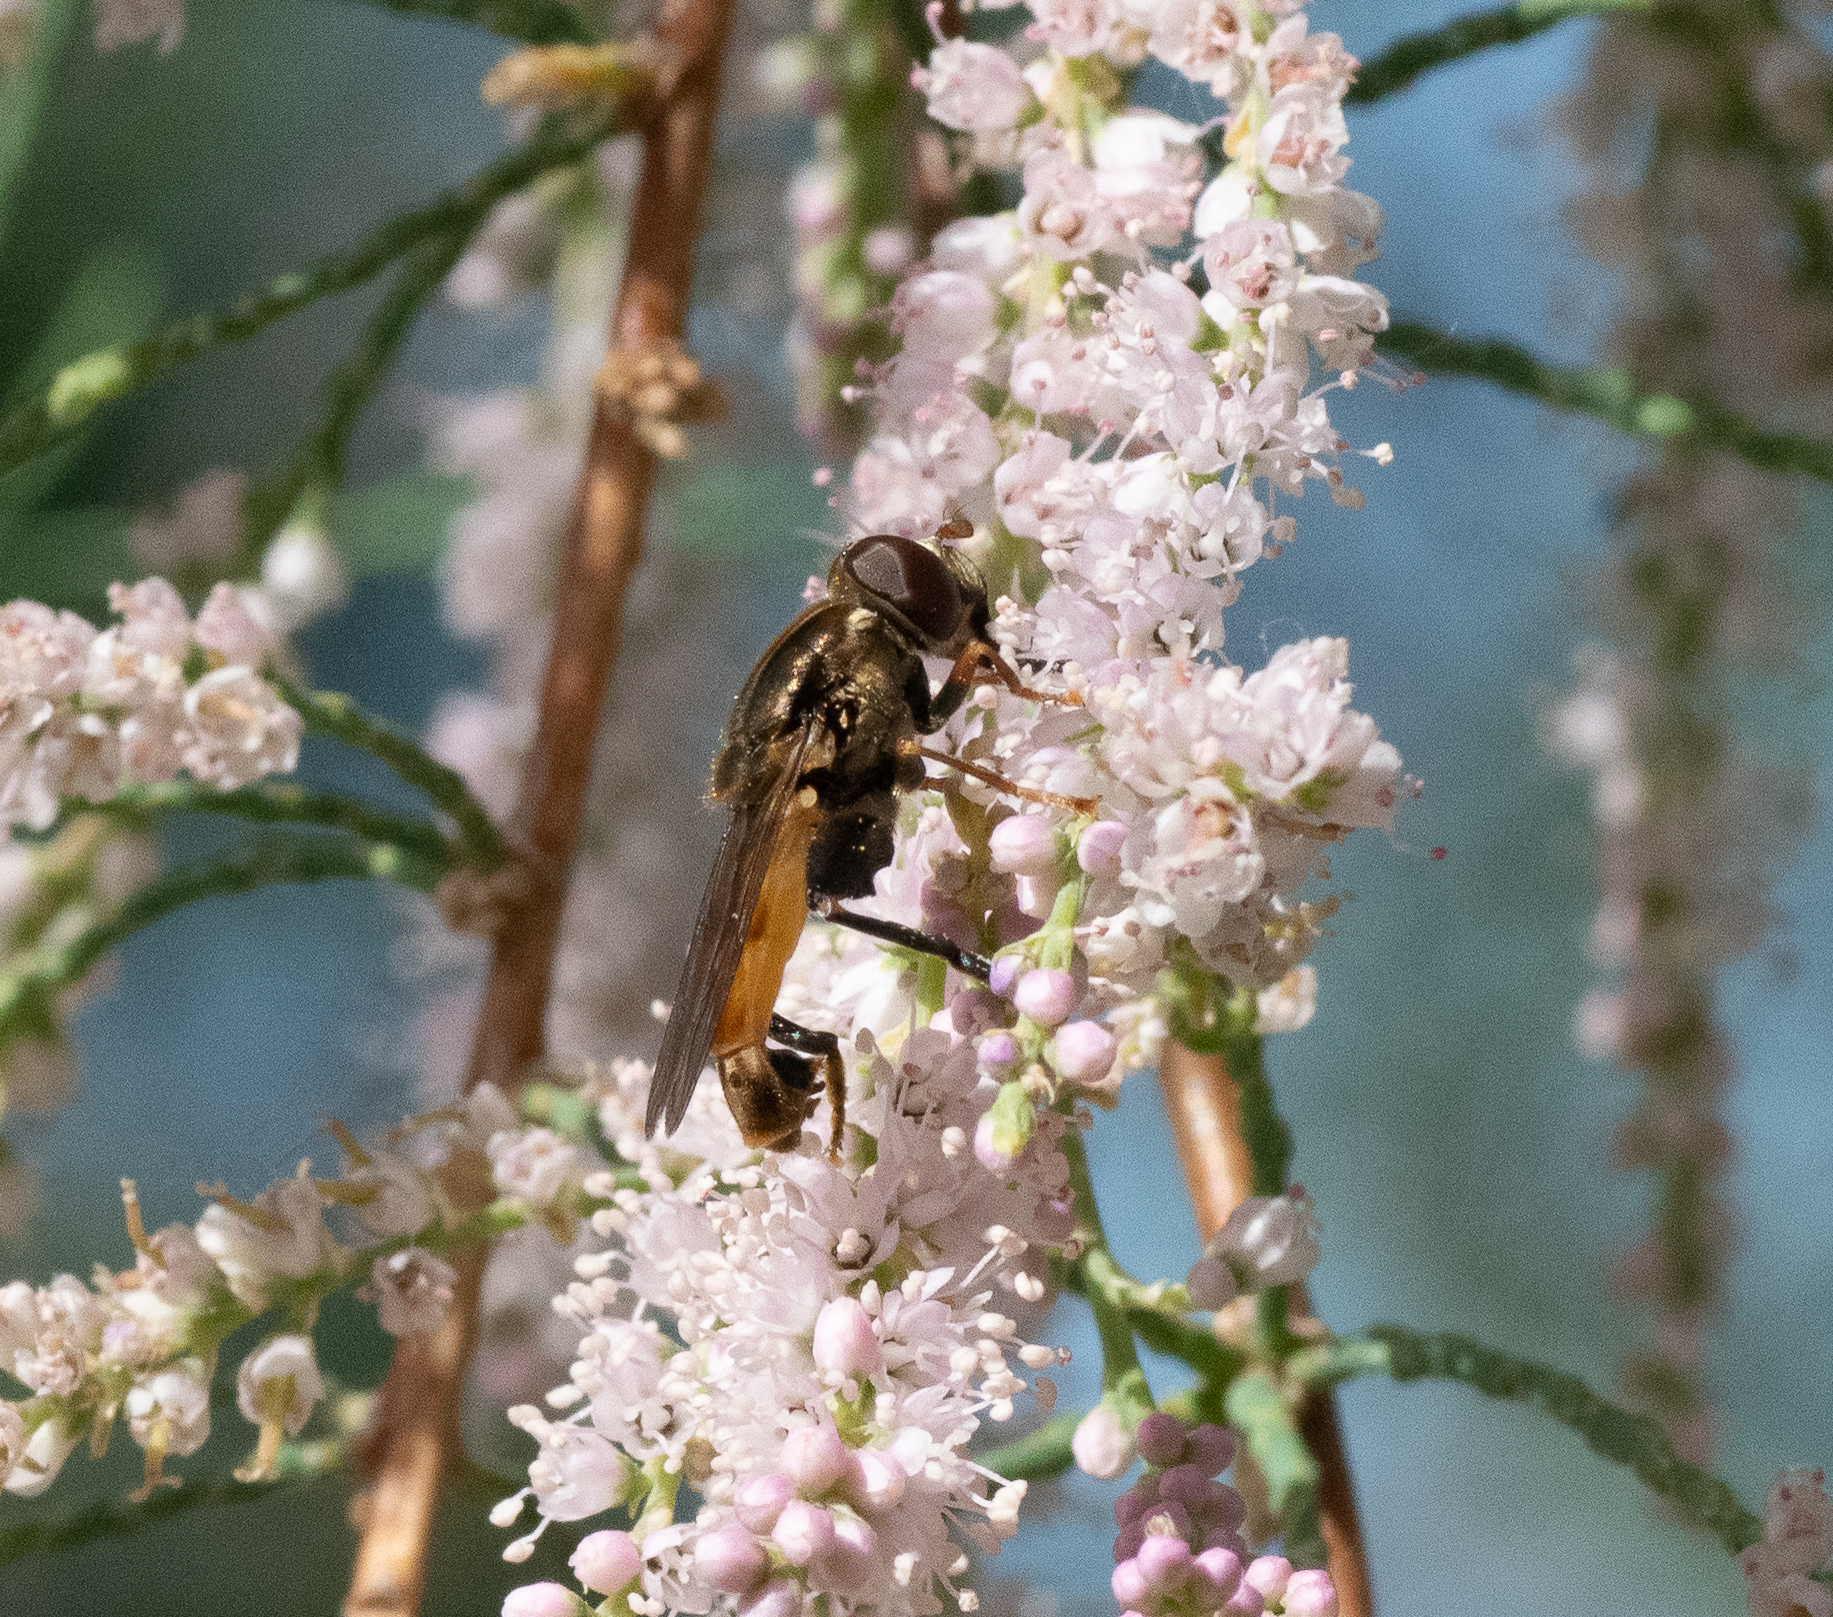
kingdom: Animalia
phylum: Arthropoda
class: Insecta
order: Diptera
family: Syrphidae
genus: Tropidia
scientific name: Tropidia quadrata
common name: Common thick-legged fly
